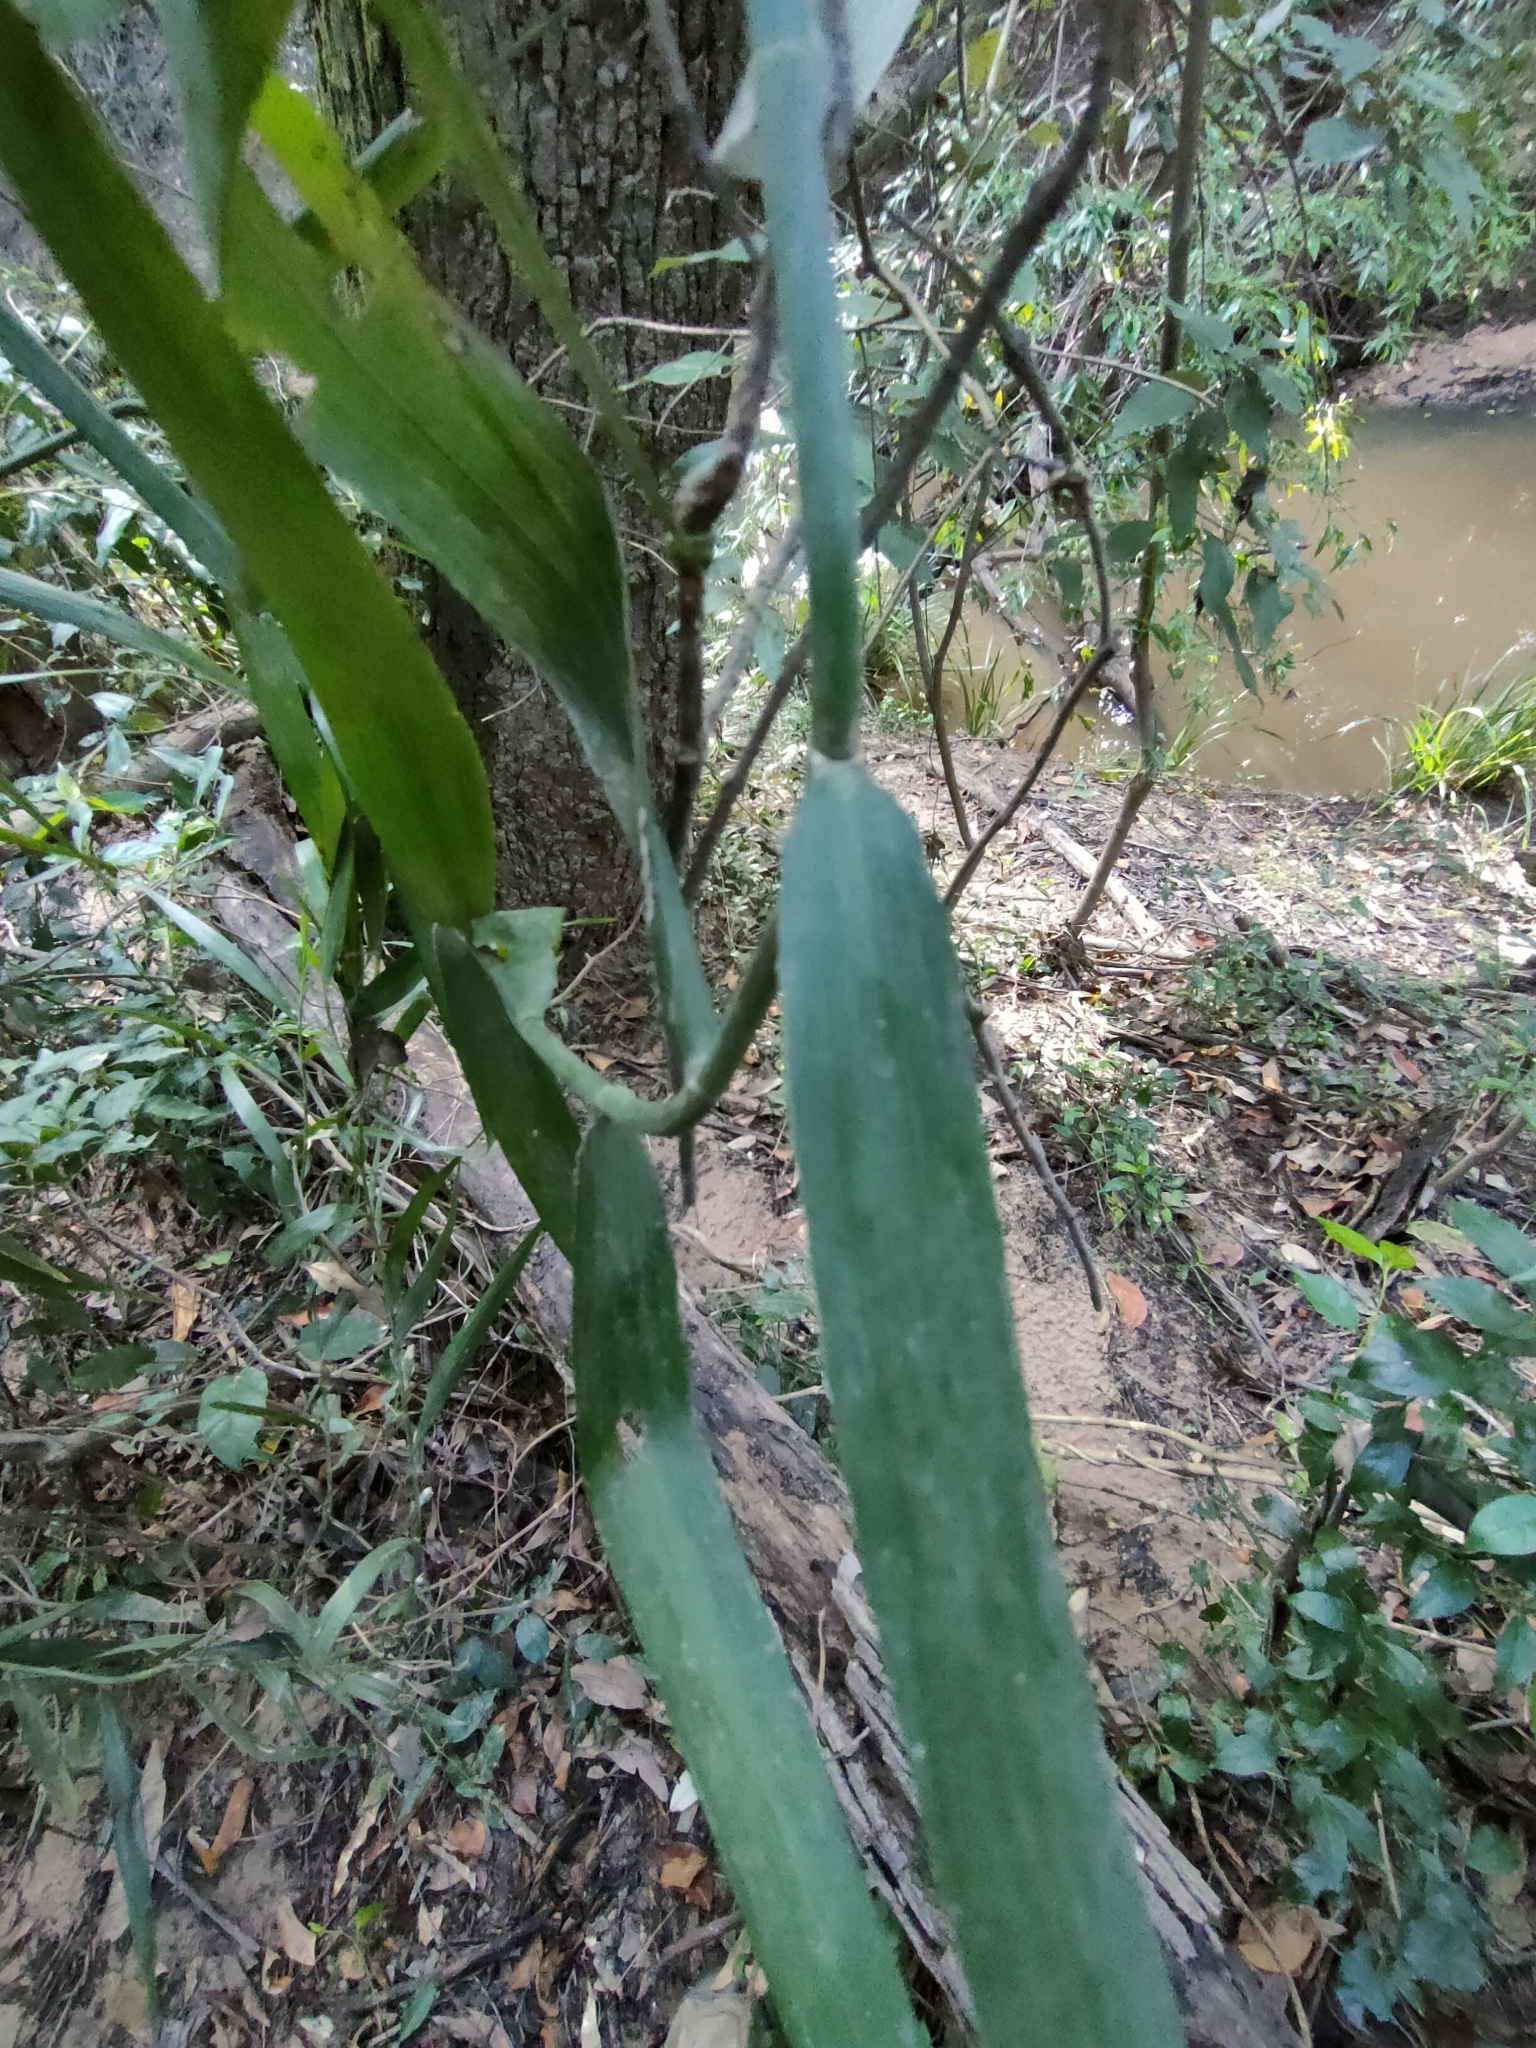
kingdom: Plantae
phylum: Tracheophyta
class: Liliopsida
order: Poales
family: Flagellariaceae
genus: Flagellaria
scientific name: Flagellaria indica
